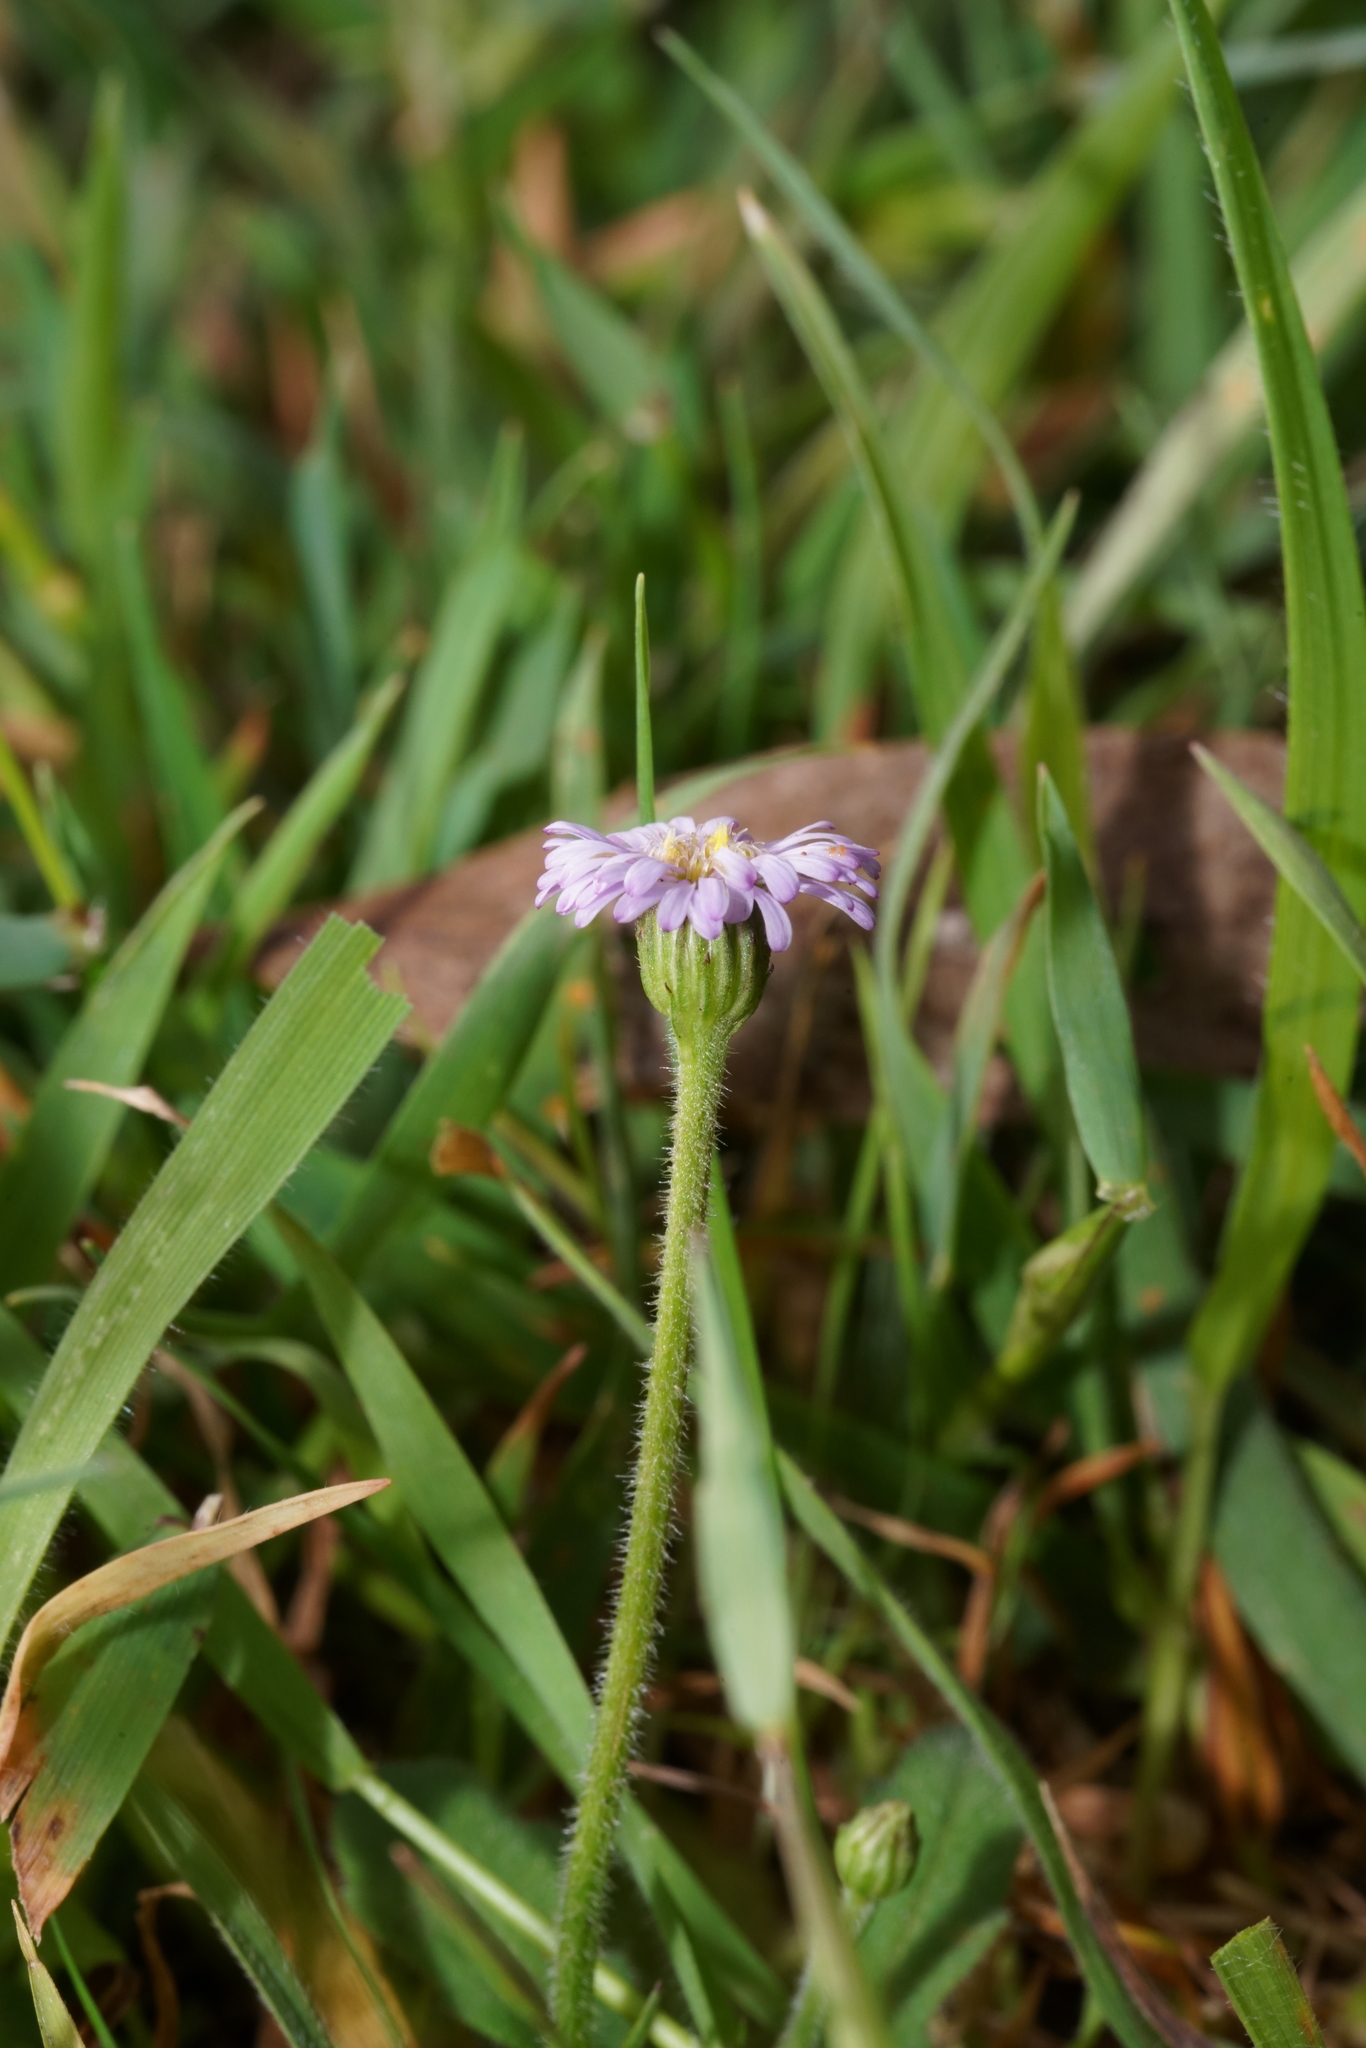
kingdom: Plantae
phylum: Tracheophyta
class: Magnoliopsida
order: Asterales
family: Asteraceae
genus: Lagenophora
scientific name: Lagenophora stipitata
